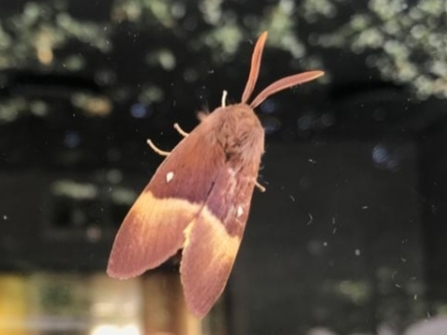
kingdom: Animalia
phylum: Arthropoda
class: Insecta
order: Lepidoptera
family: Lasiocampidae
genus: Lasiocampa
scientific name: Lasiocampa quercus
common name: Oak eggar
